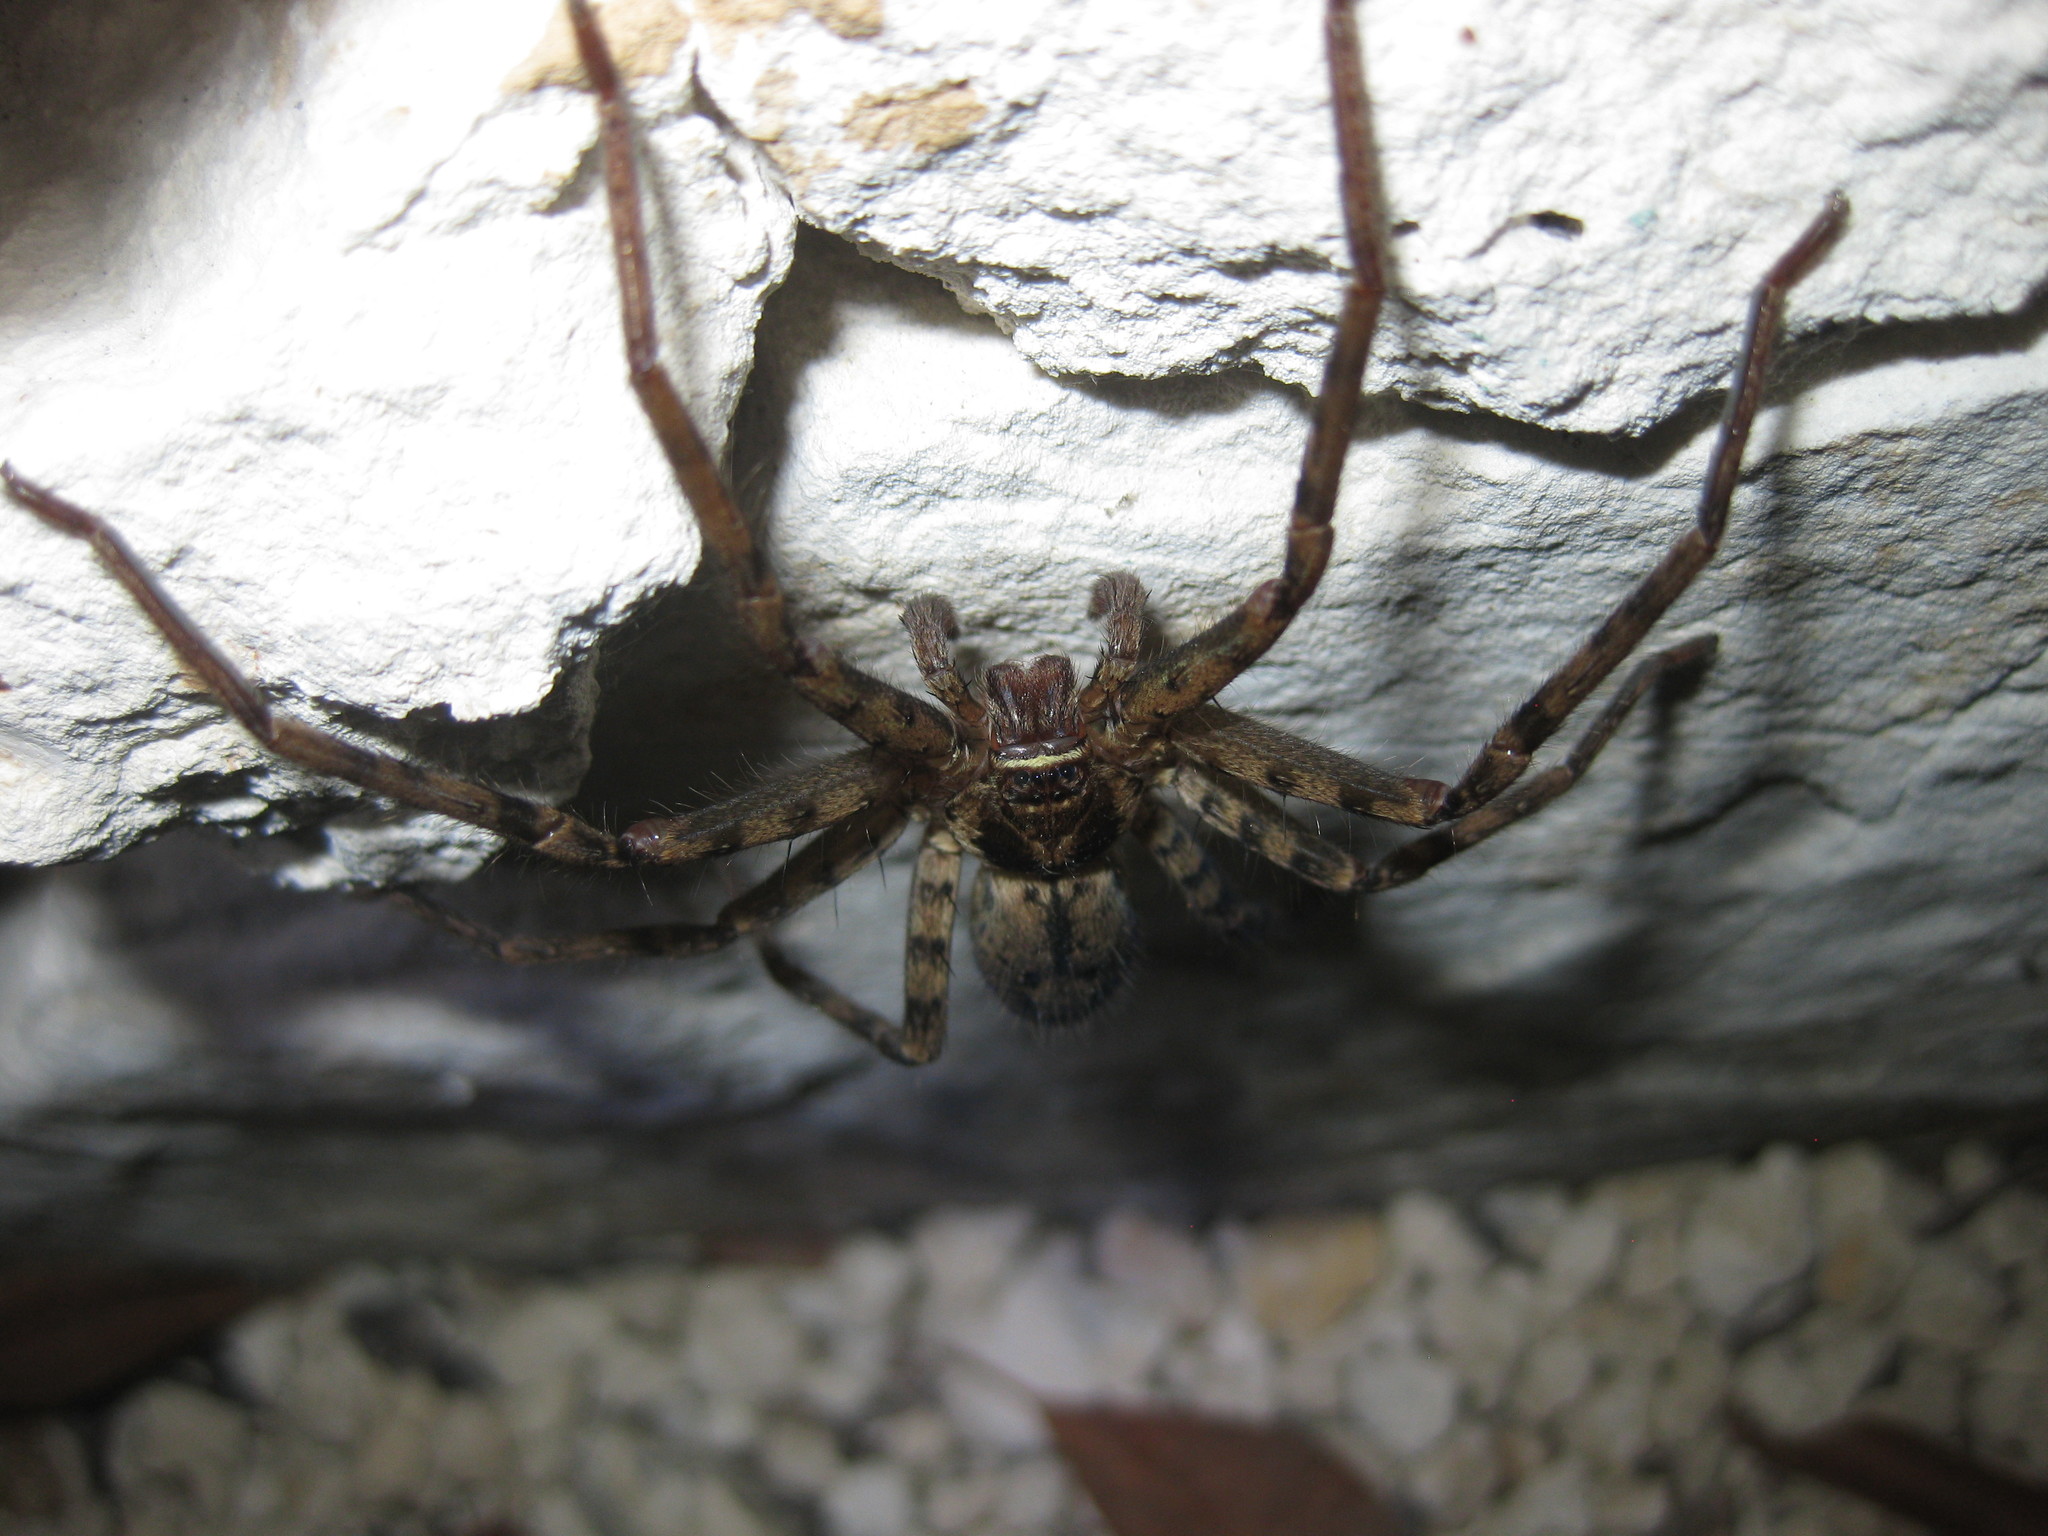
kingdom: Animalia
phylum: Arthropoda
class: Arachnida
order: Araneae
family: Sparassidae
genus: Heteropoda
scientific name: Heteropoda venatoria
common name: Huntsman spider
